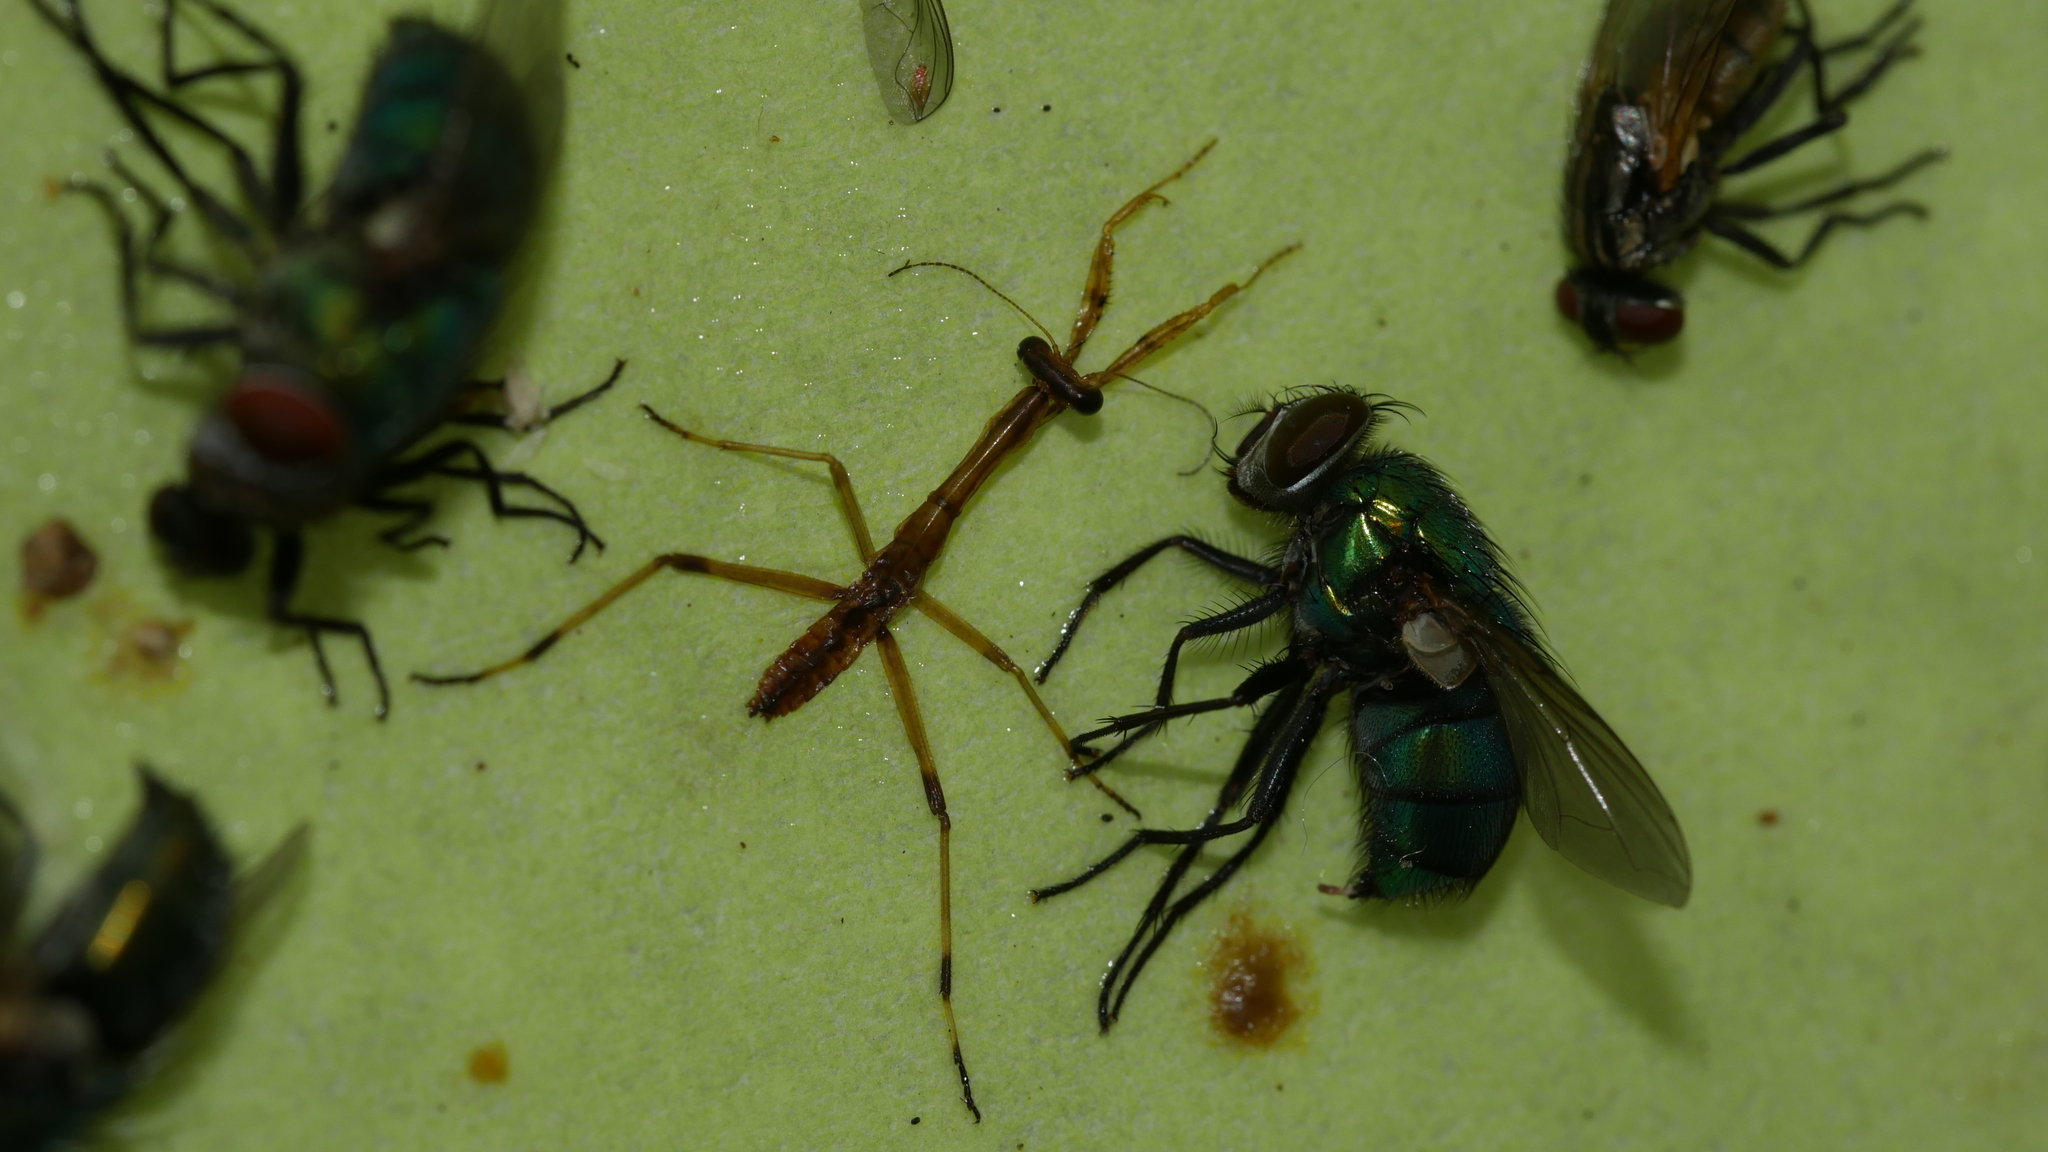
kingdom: Animalia
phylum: Arthropoda
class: Insecta
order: Mantodea
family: Mantidae
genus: Stagmomantis
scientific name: Stagmomantis carolina
